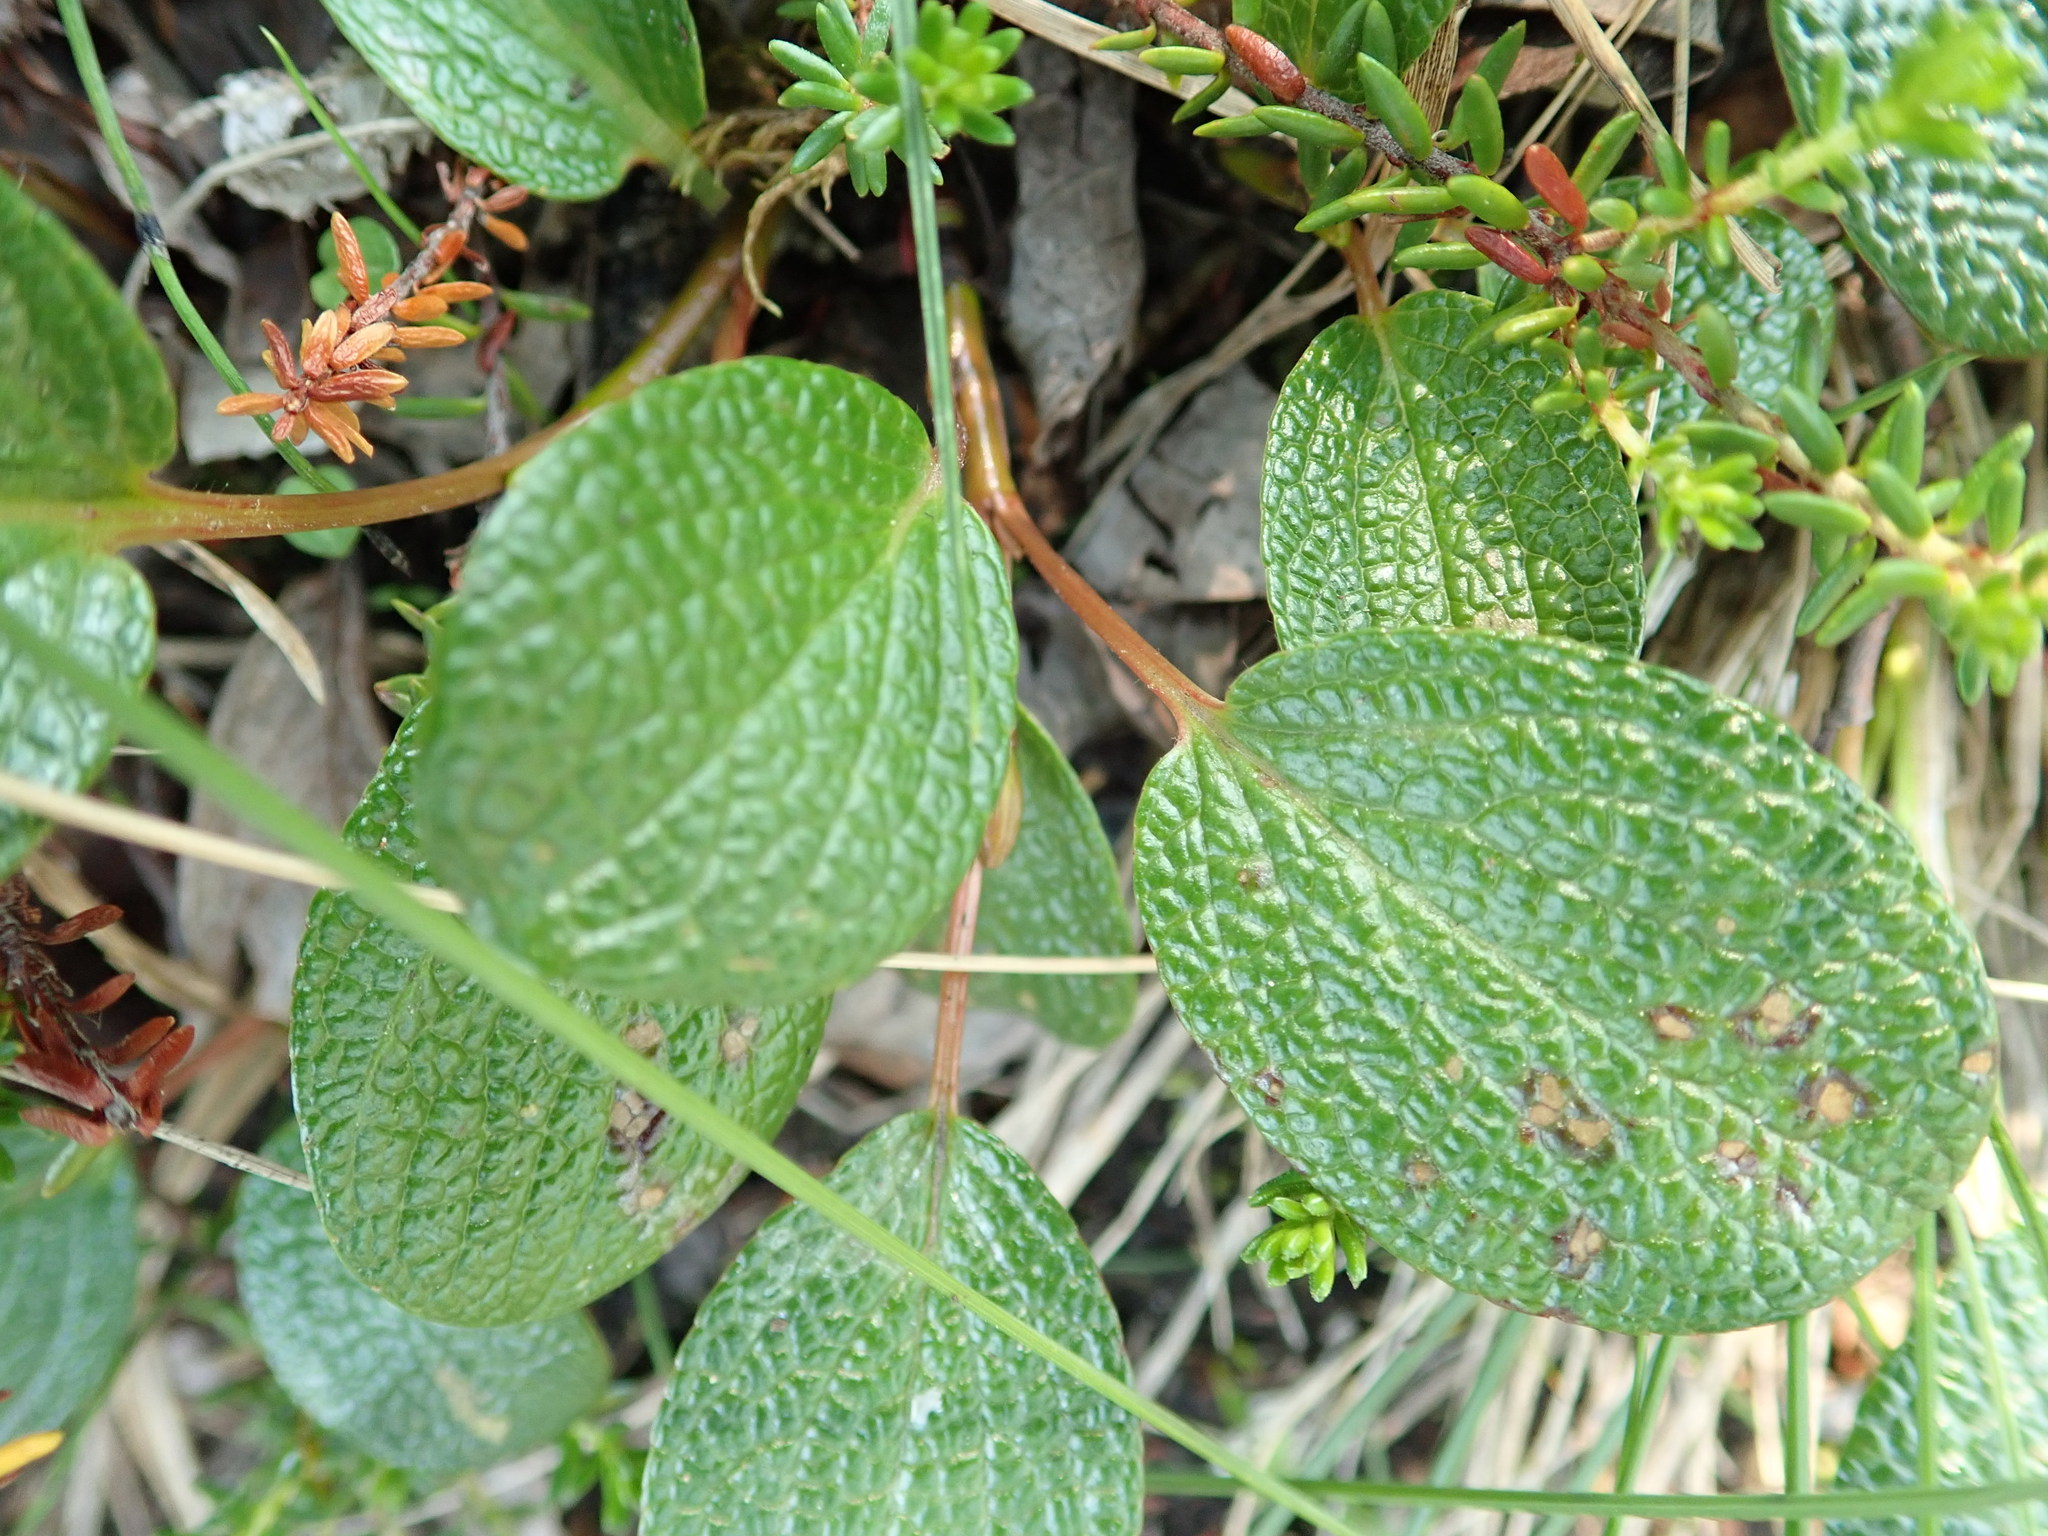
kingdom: Plantae
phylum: Tracheophyta
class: Magnoliopsida
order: Malpighiales
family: Salicaceae
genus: Salix
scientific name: Salix reticulata
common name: Net-leaved willow
